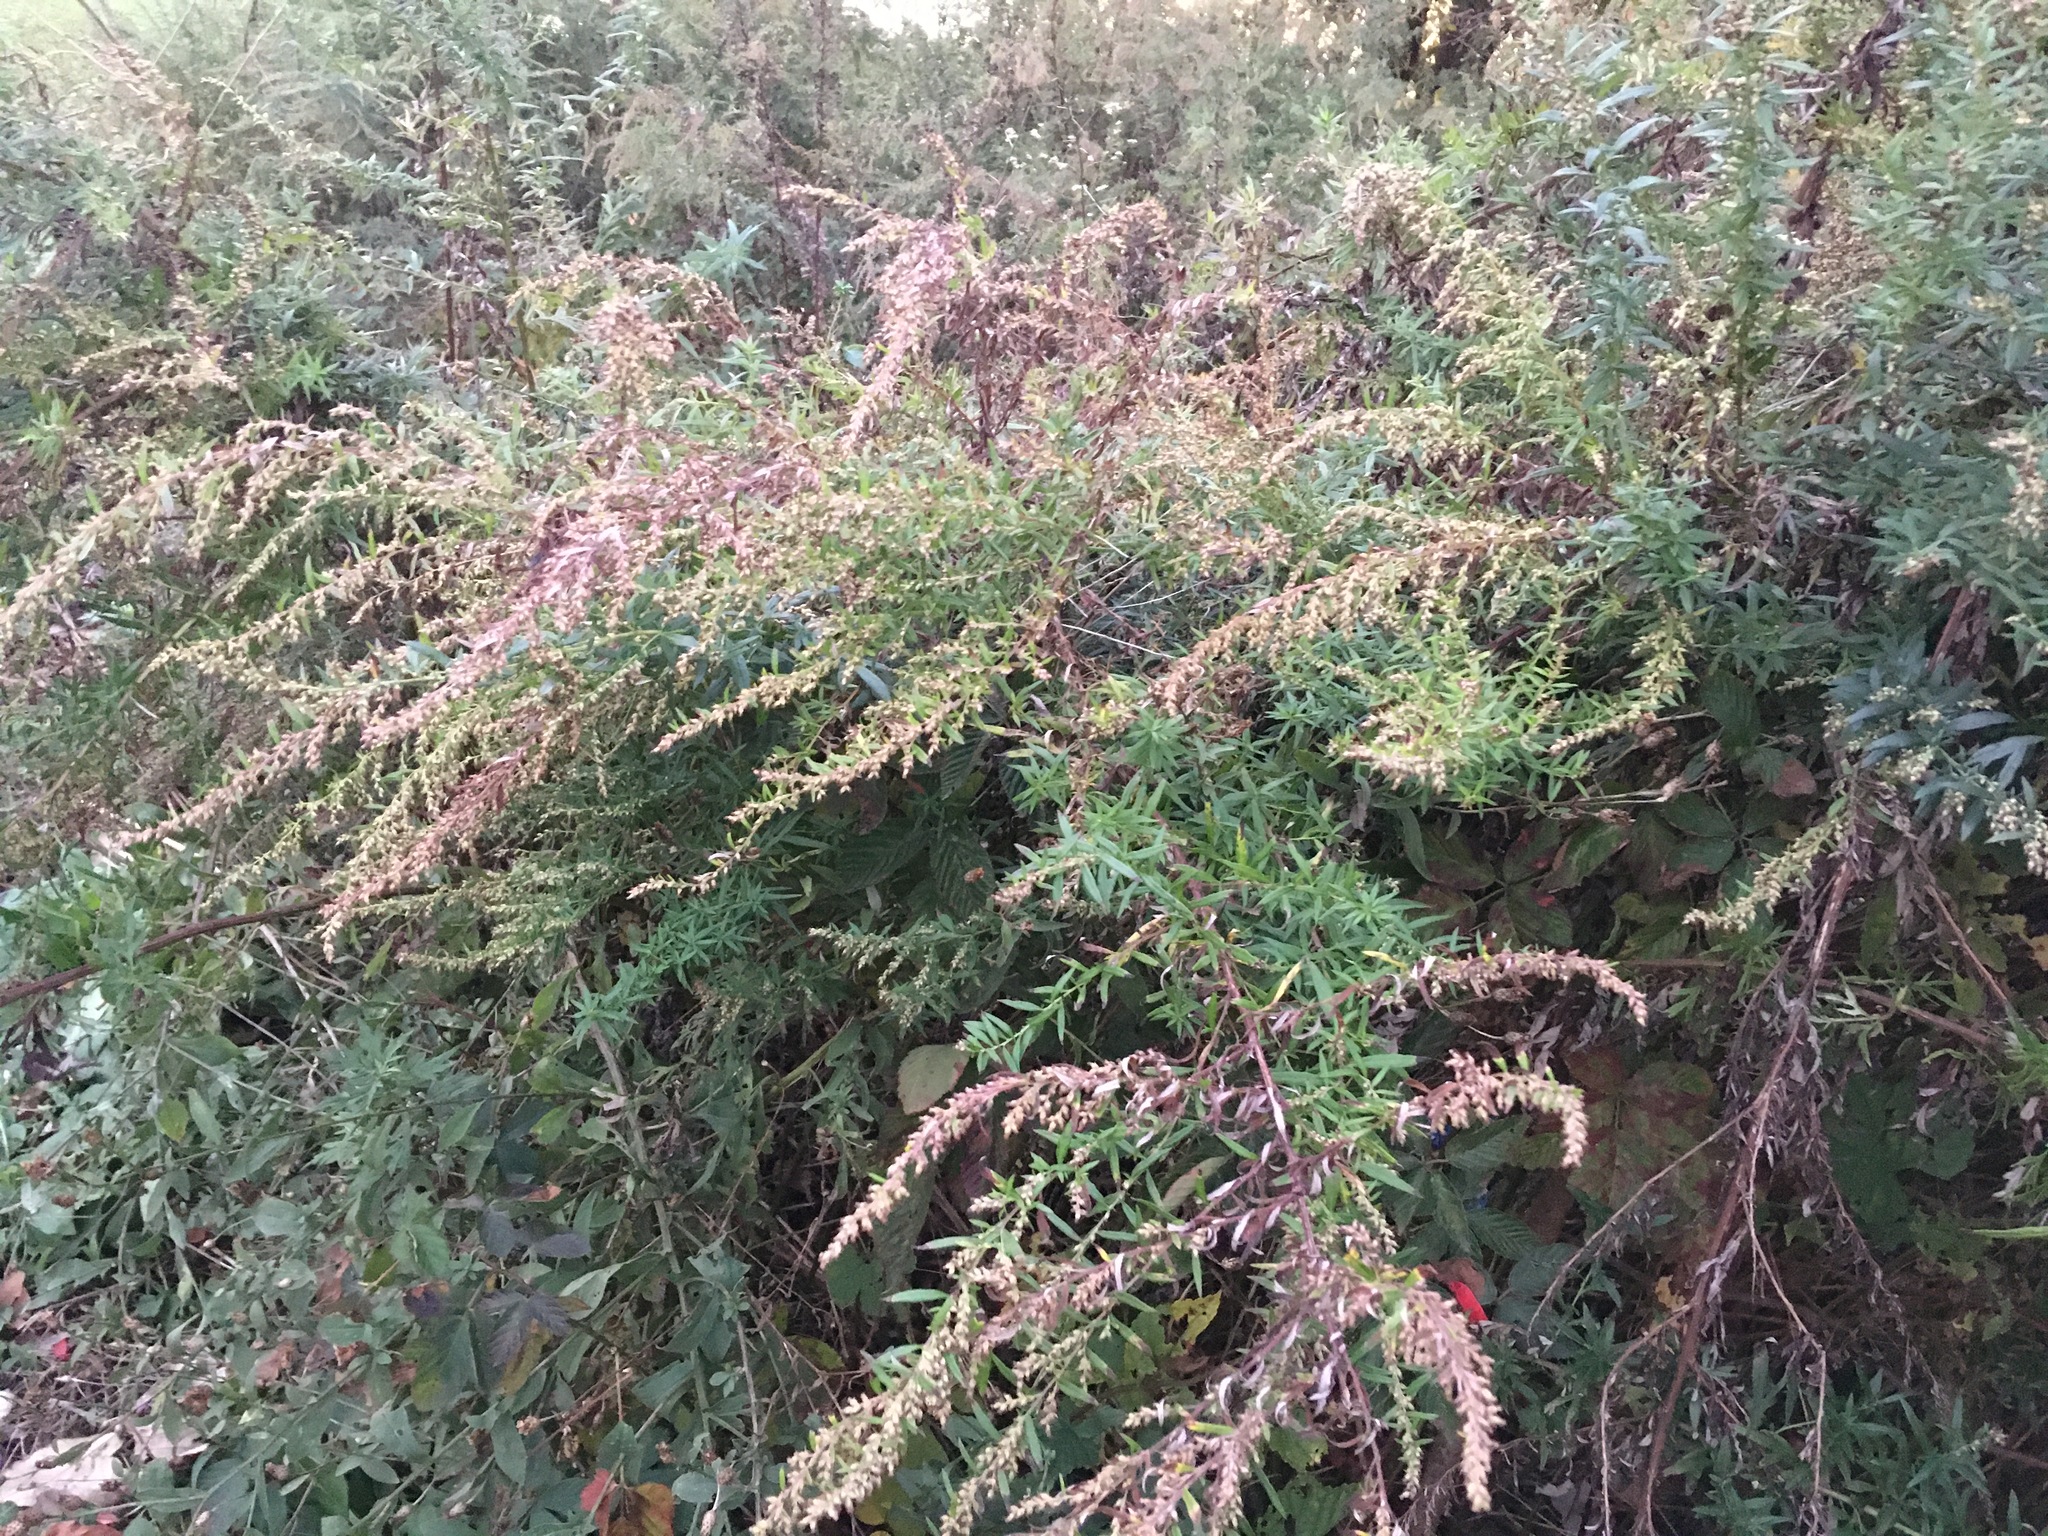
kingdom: Plantae
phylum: Tracheophyta
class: Magnoliopsida
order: Asterales
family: Asteraceae
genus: Artemisia
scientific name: Artemisia vulgaris
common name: Mugwort
